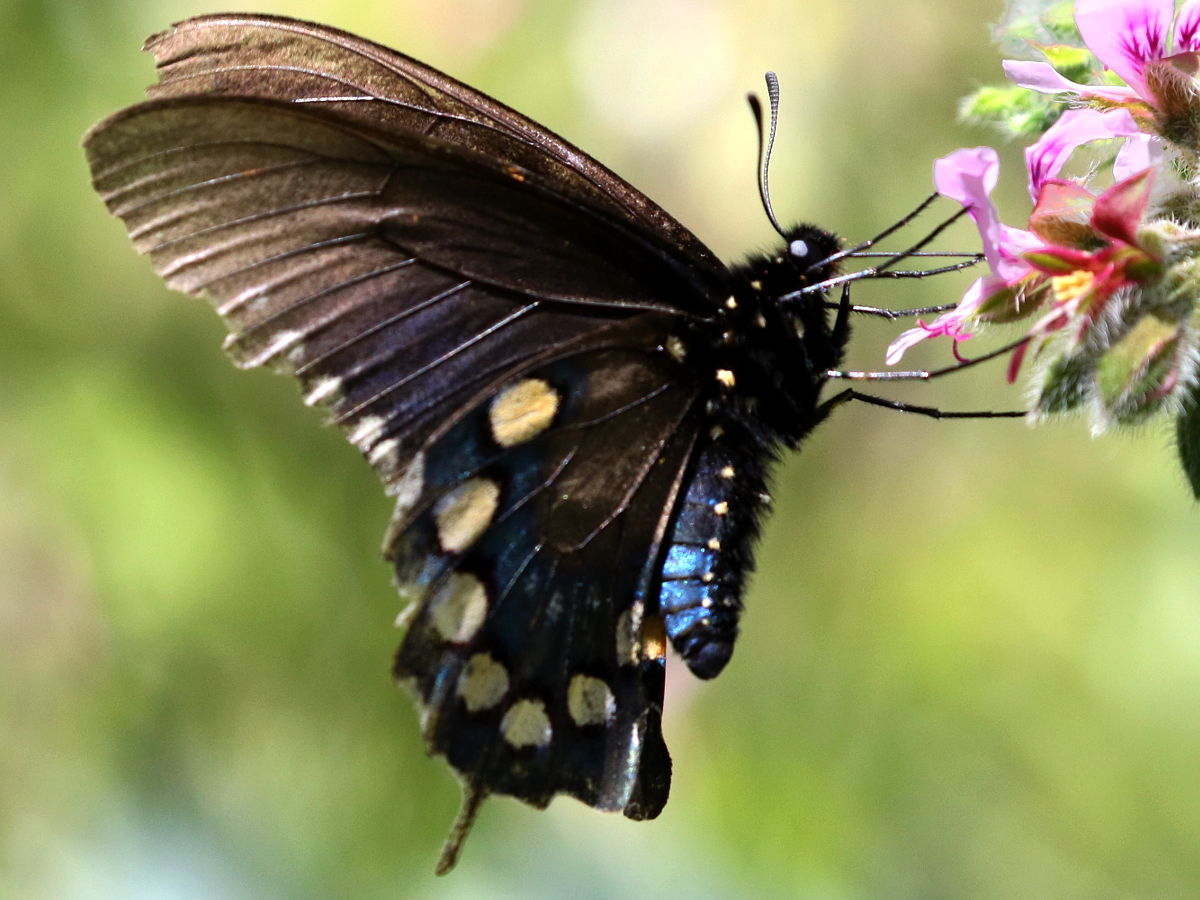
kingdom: Animalia
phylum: Arthropoda
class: Insecta
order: Lepidoptera
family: Papilionidae
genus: Battus
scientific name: Battus philenor
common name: Pipevine swallowtail
